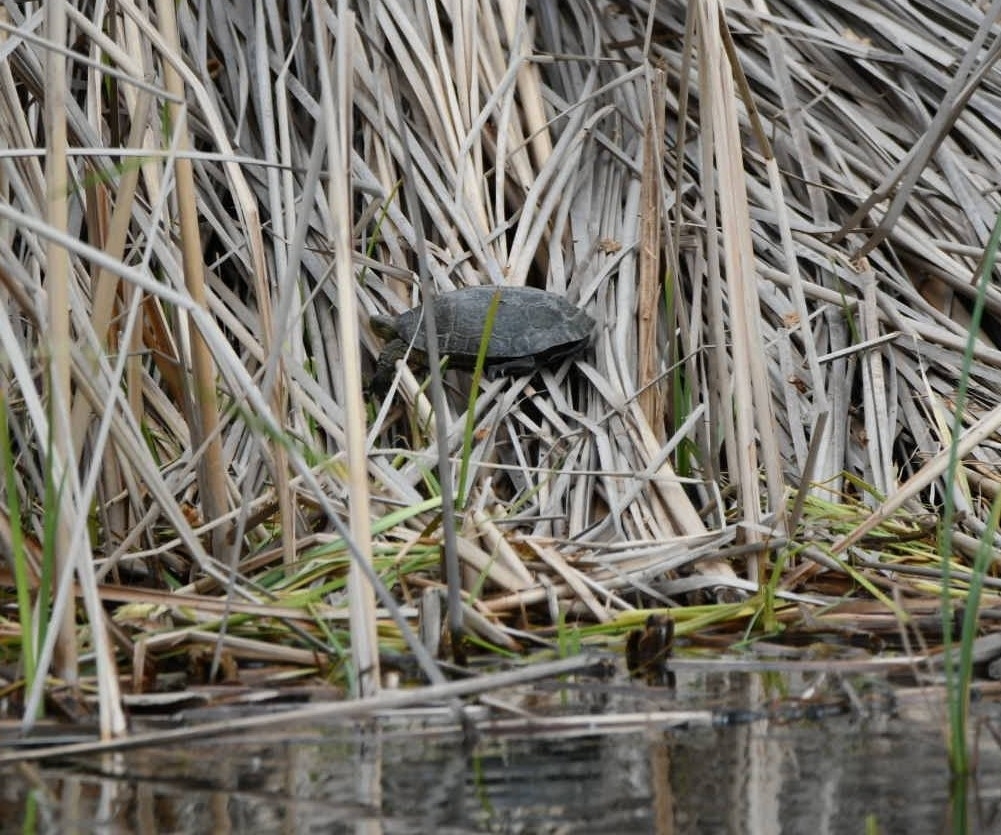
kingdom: Animalia
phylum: Chordata
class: Testudines
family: Geoemydidae
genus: Mauremys
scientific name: Mauremys leprosa
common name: Mediterranean pond turtle
